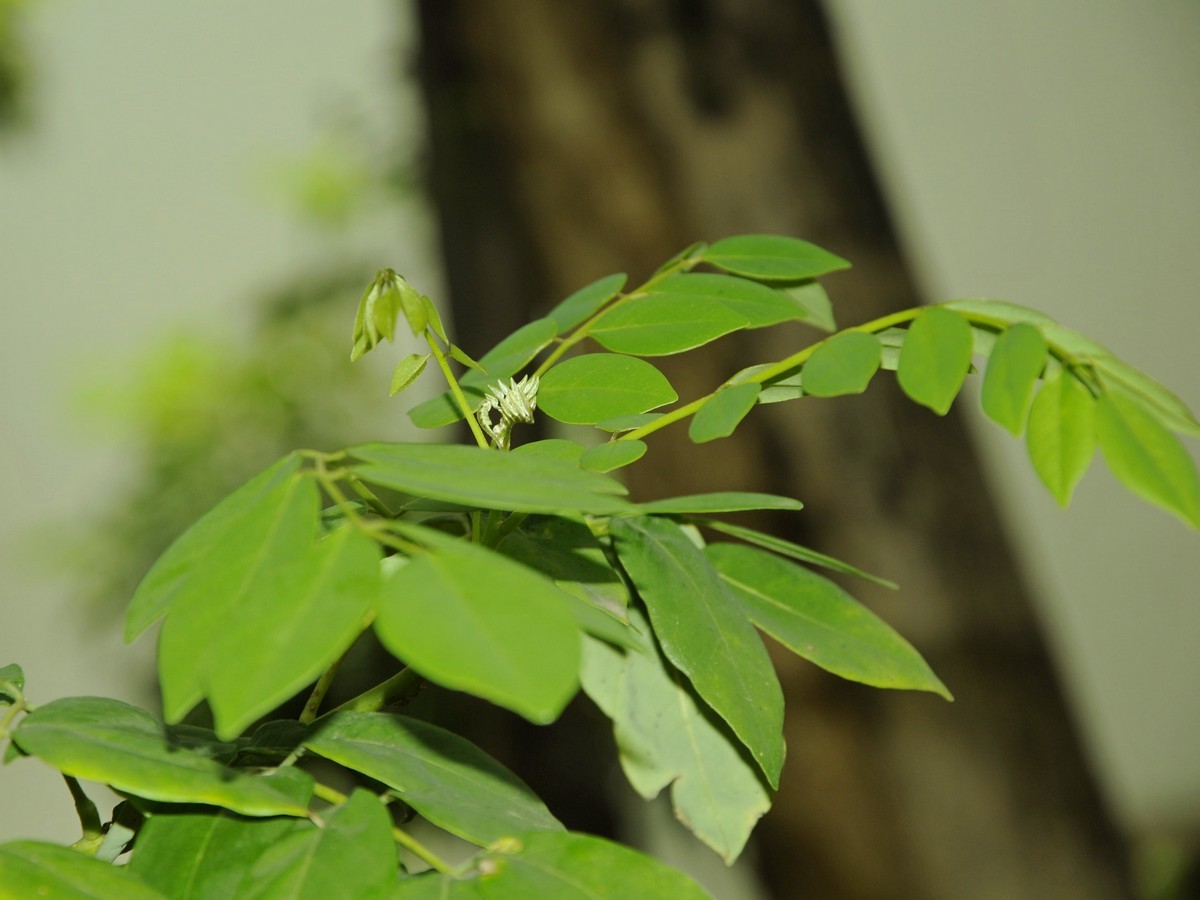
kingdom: Plantae
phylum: Tracheophyta
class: Magnoliopsida
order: Fabales
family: Fabaceae
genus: Gliricidia
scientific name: Gliricidia sepium
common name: Quickstick
